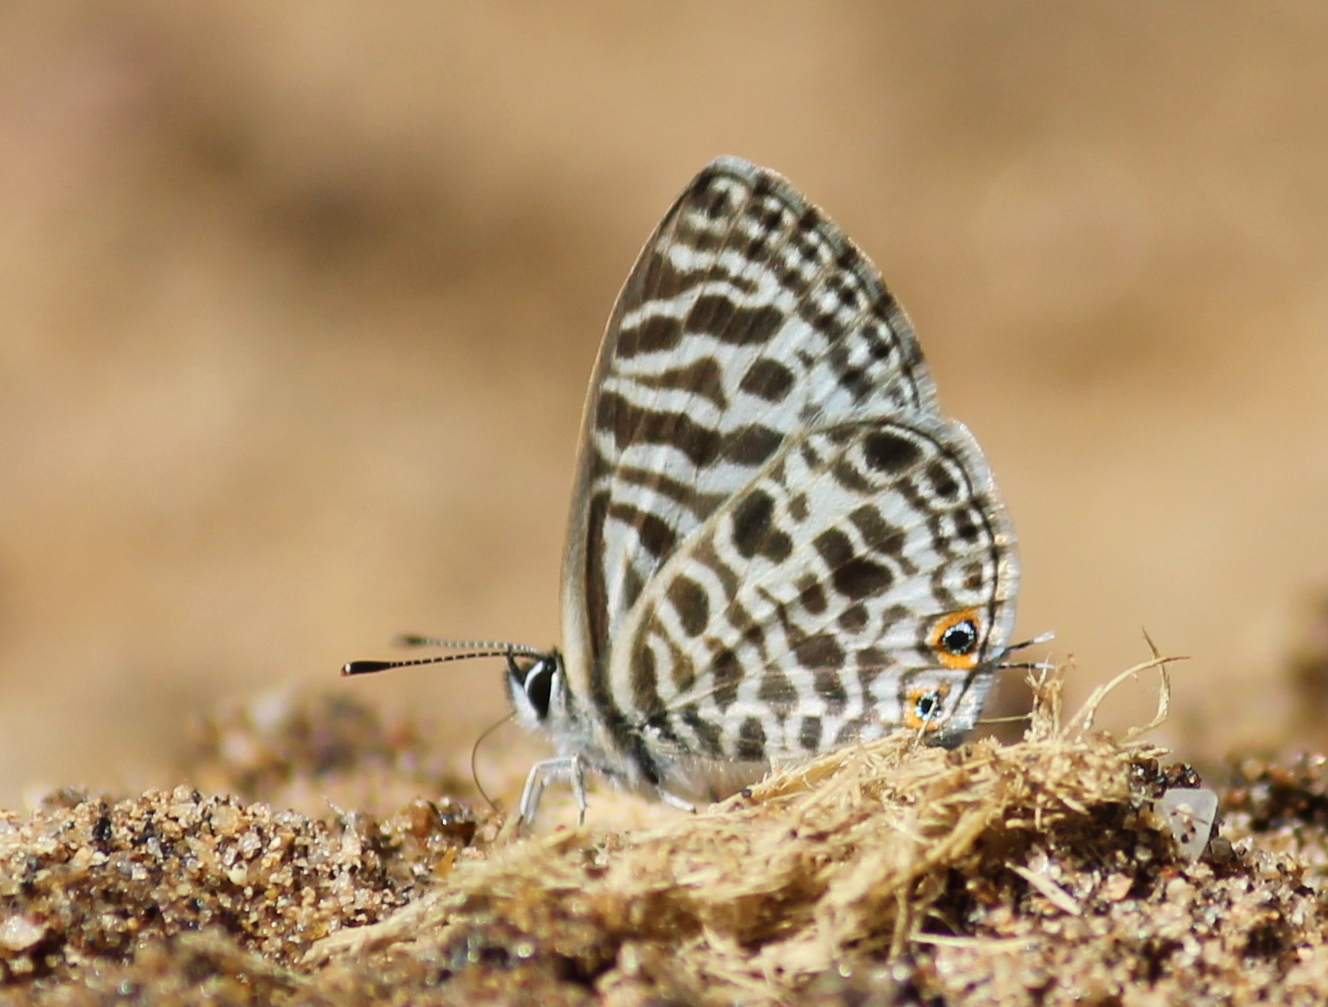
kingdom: Animalia
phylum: Arthropoda
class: Insecta
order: Lepidoptera
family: Lycaenidae
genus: Leptotes
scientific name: Leptotes plinius
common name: Zebra blue
